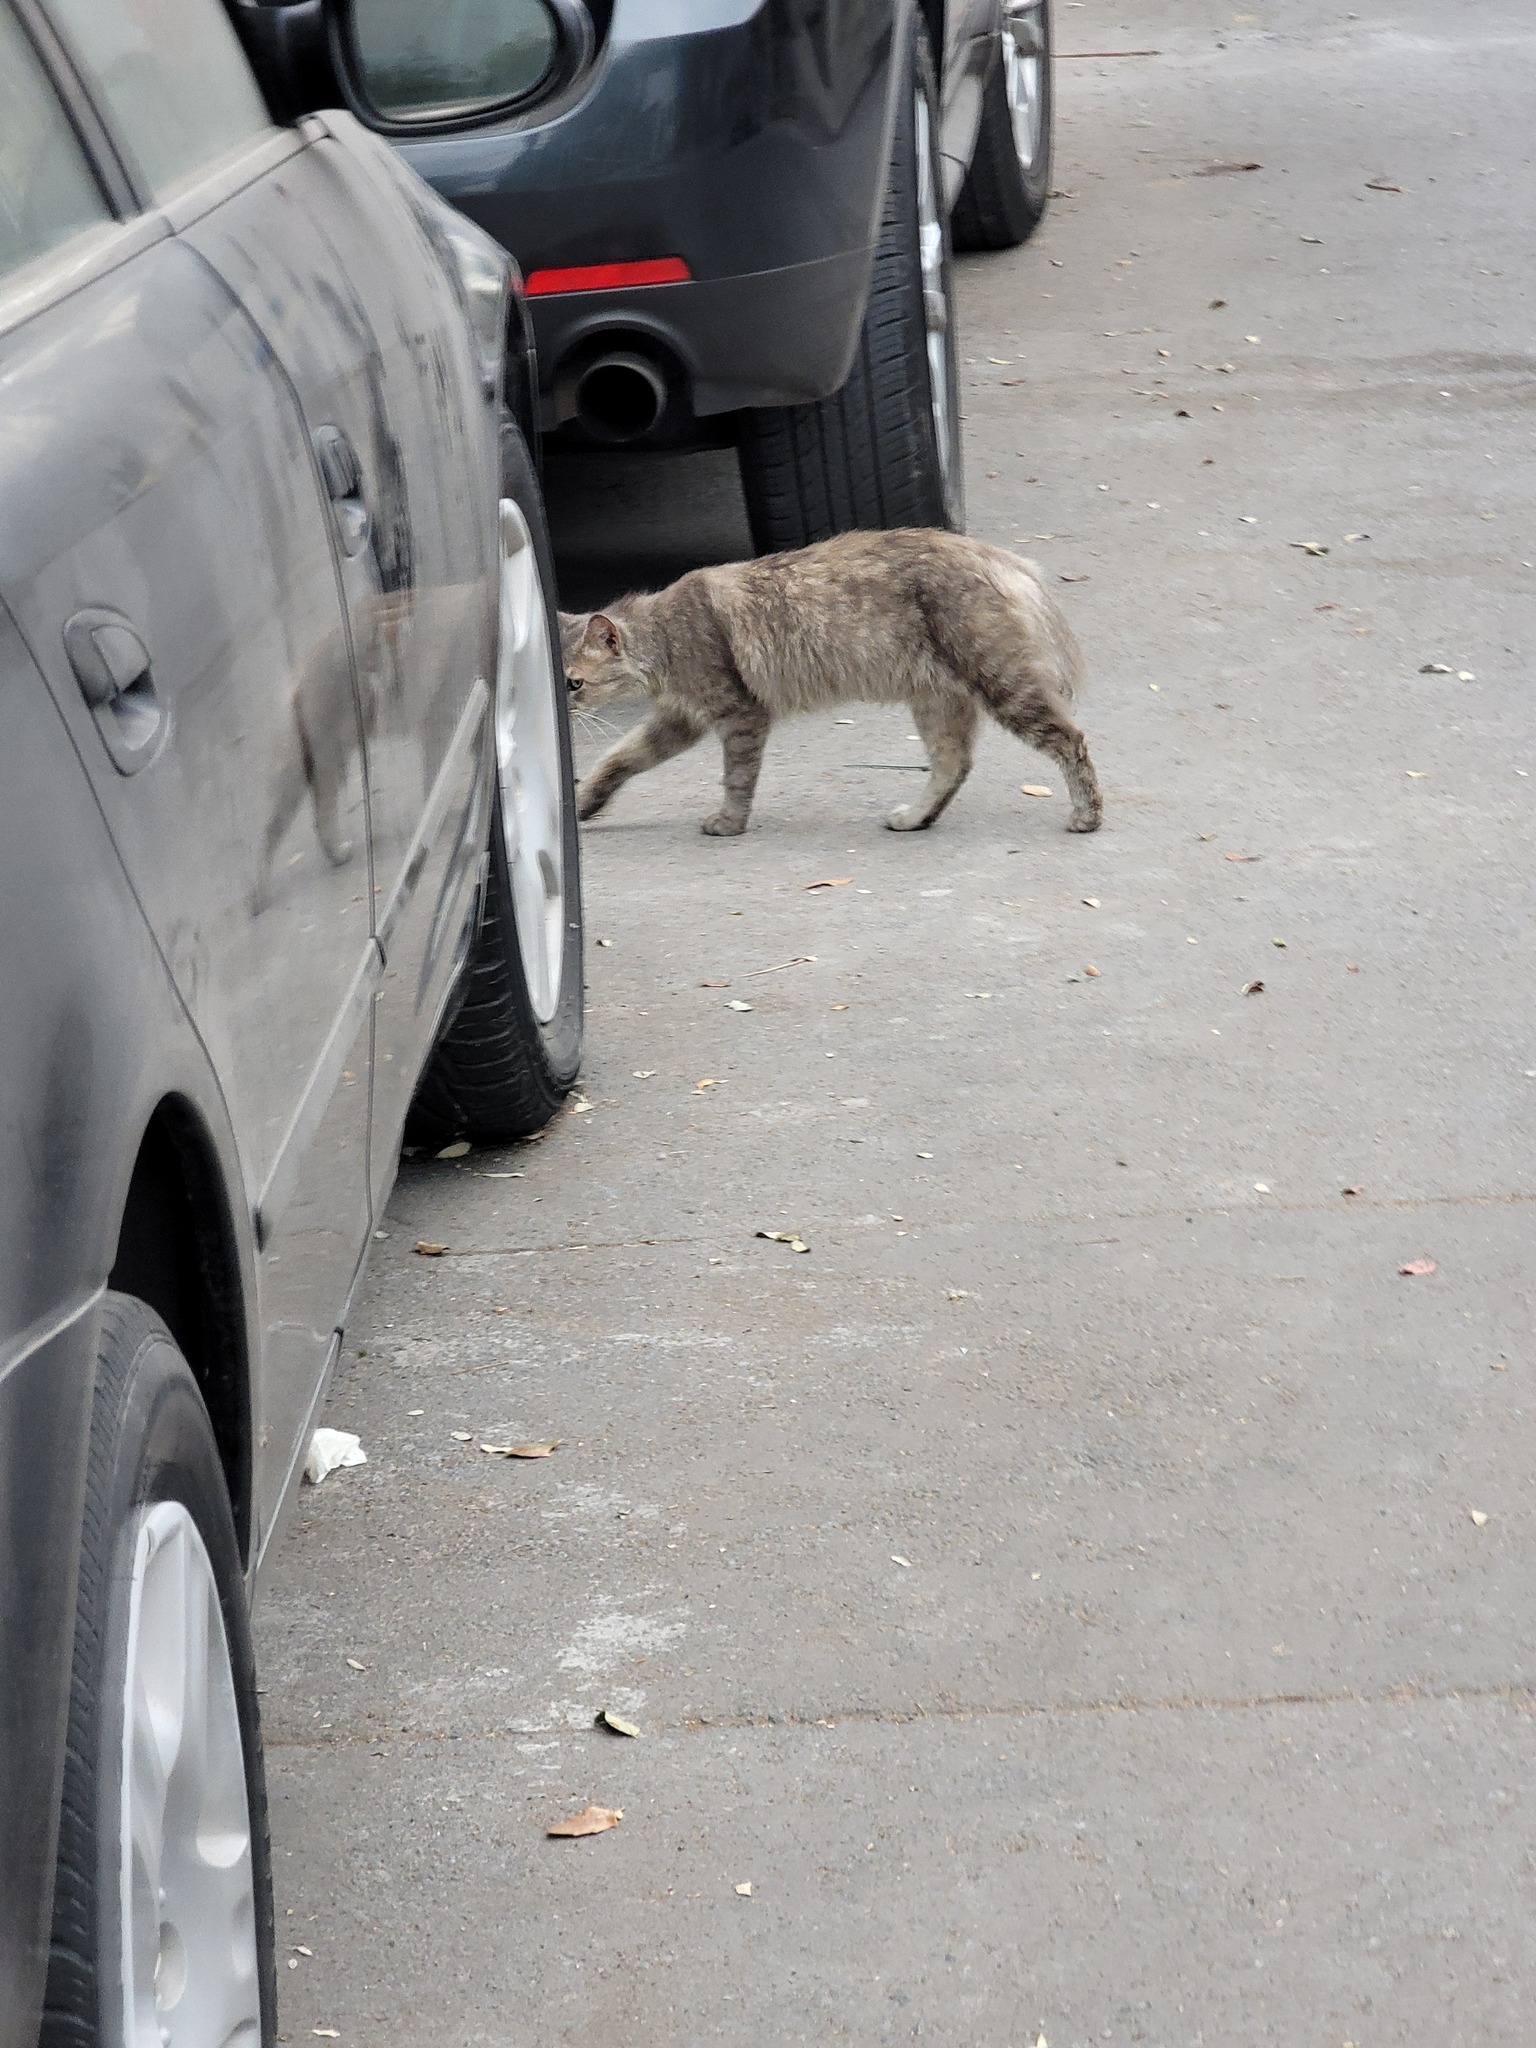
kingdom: Animalia
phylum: Chordata
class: Mammalia
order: Carnivora
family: Felidae
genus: Felis
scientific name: Felis catus
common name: Domestic cat
